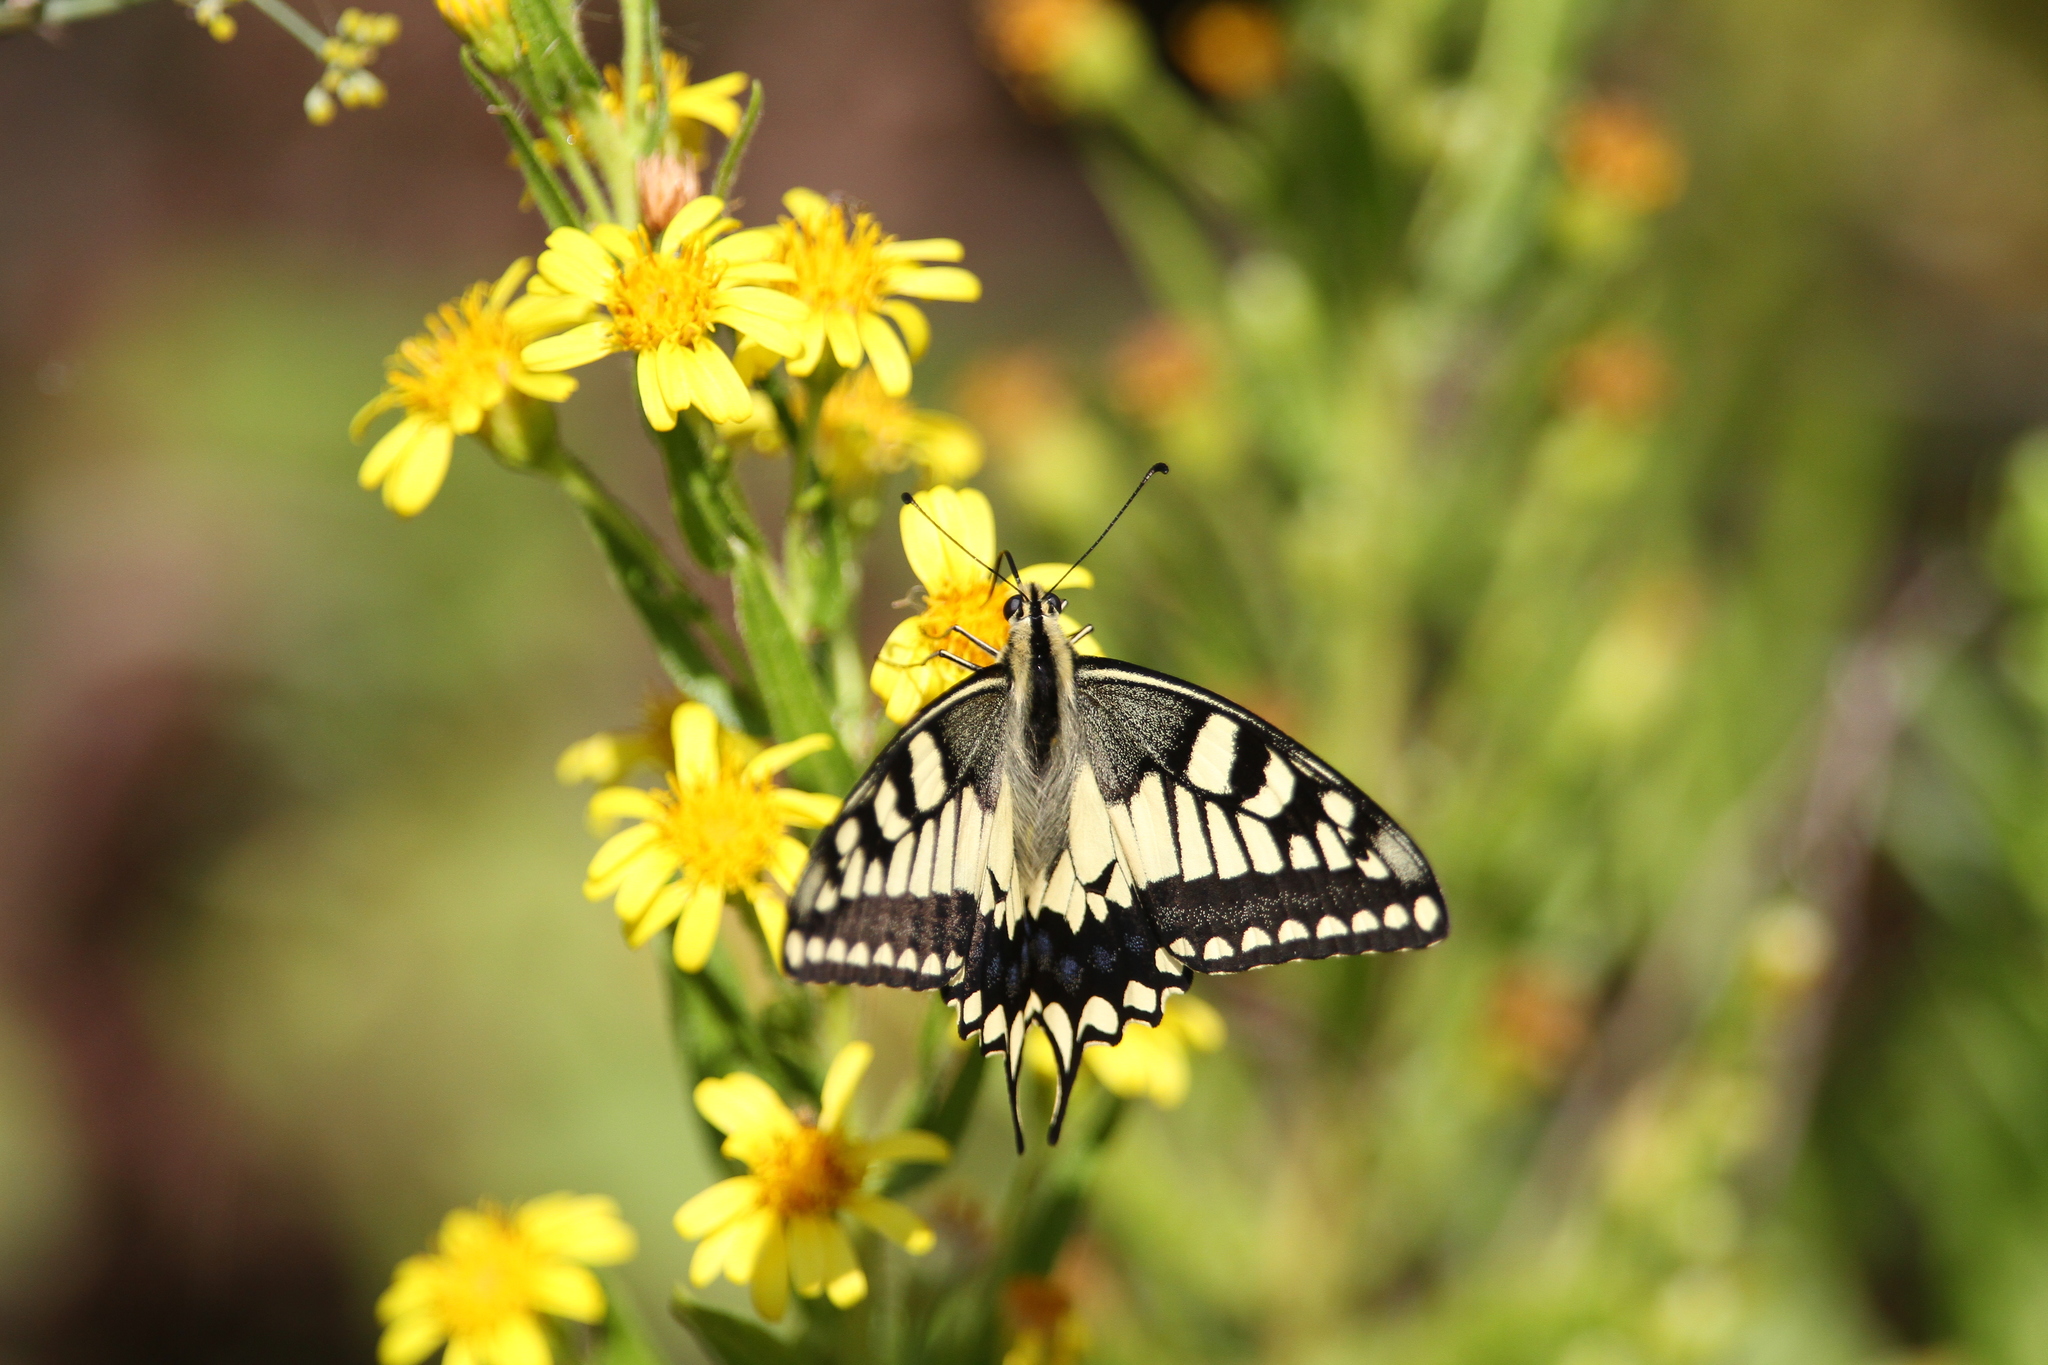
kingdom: Animalia
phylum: Arthropoda
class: Insecta
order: Lepidoptera
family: Papilionidae
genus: Papilio
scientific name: Papilio machaon
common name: Swallowtail
